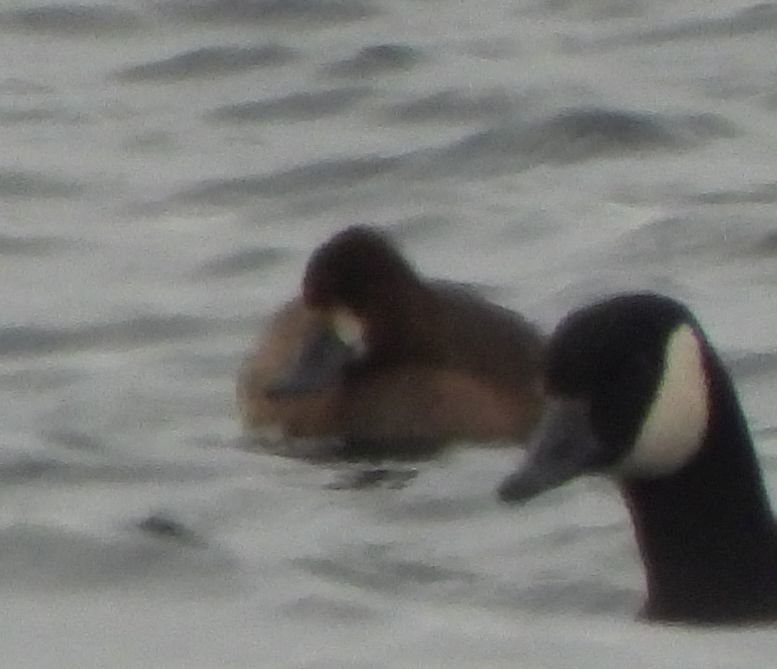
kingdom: Animalia
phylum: Chordata
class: Aves
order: Anseriformes
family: Anatidae
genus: Aythya
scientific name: Aythya marila
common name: Greater scaup
